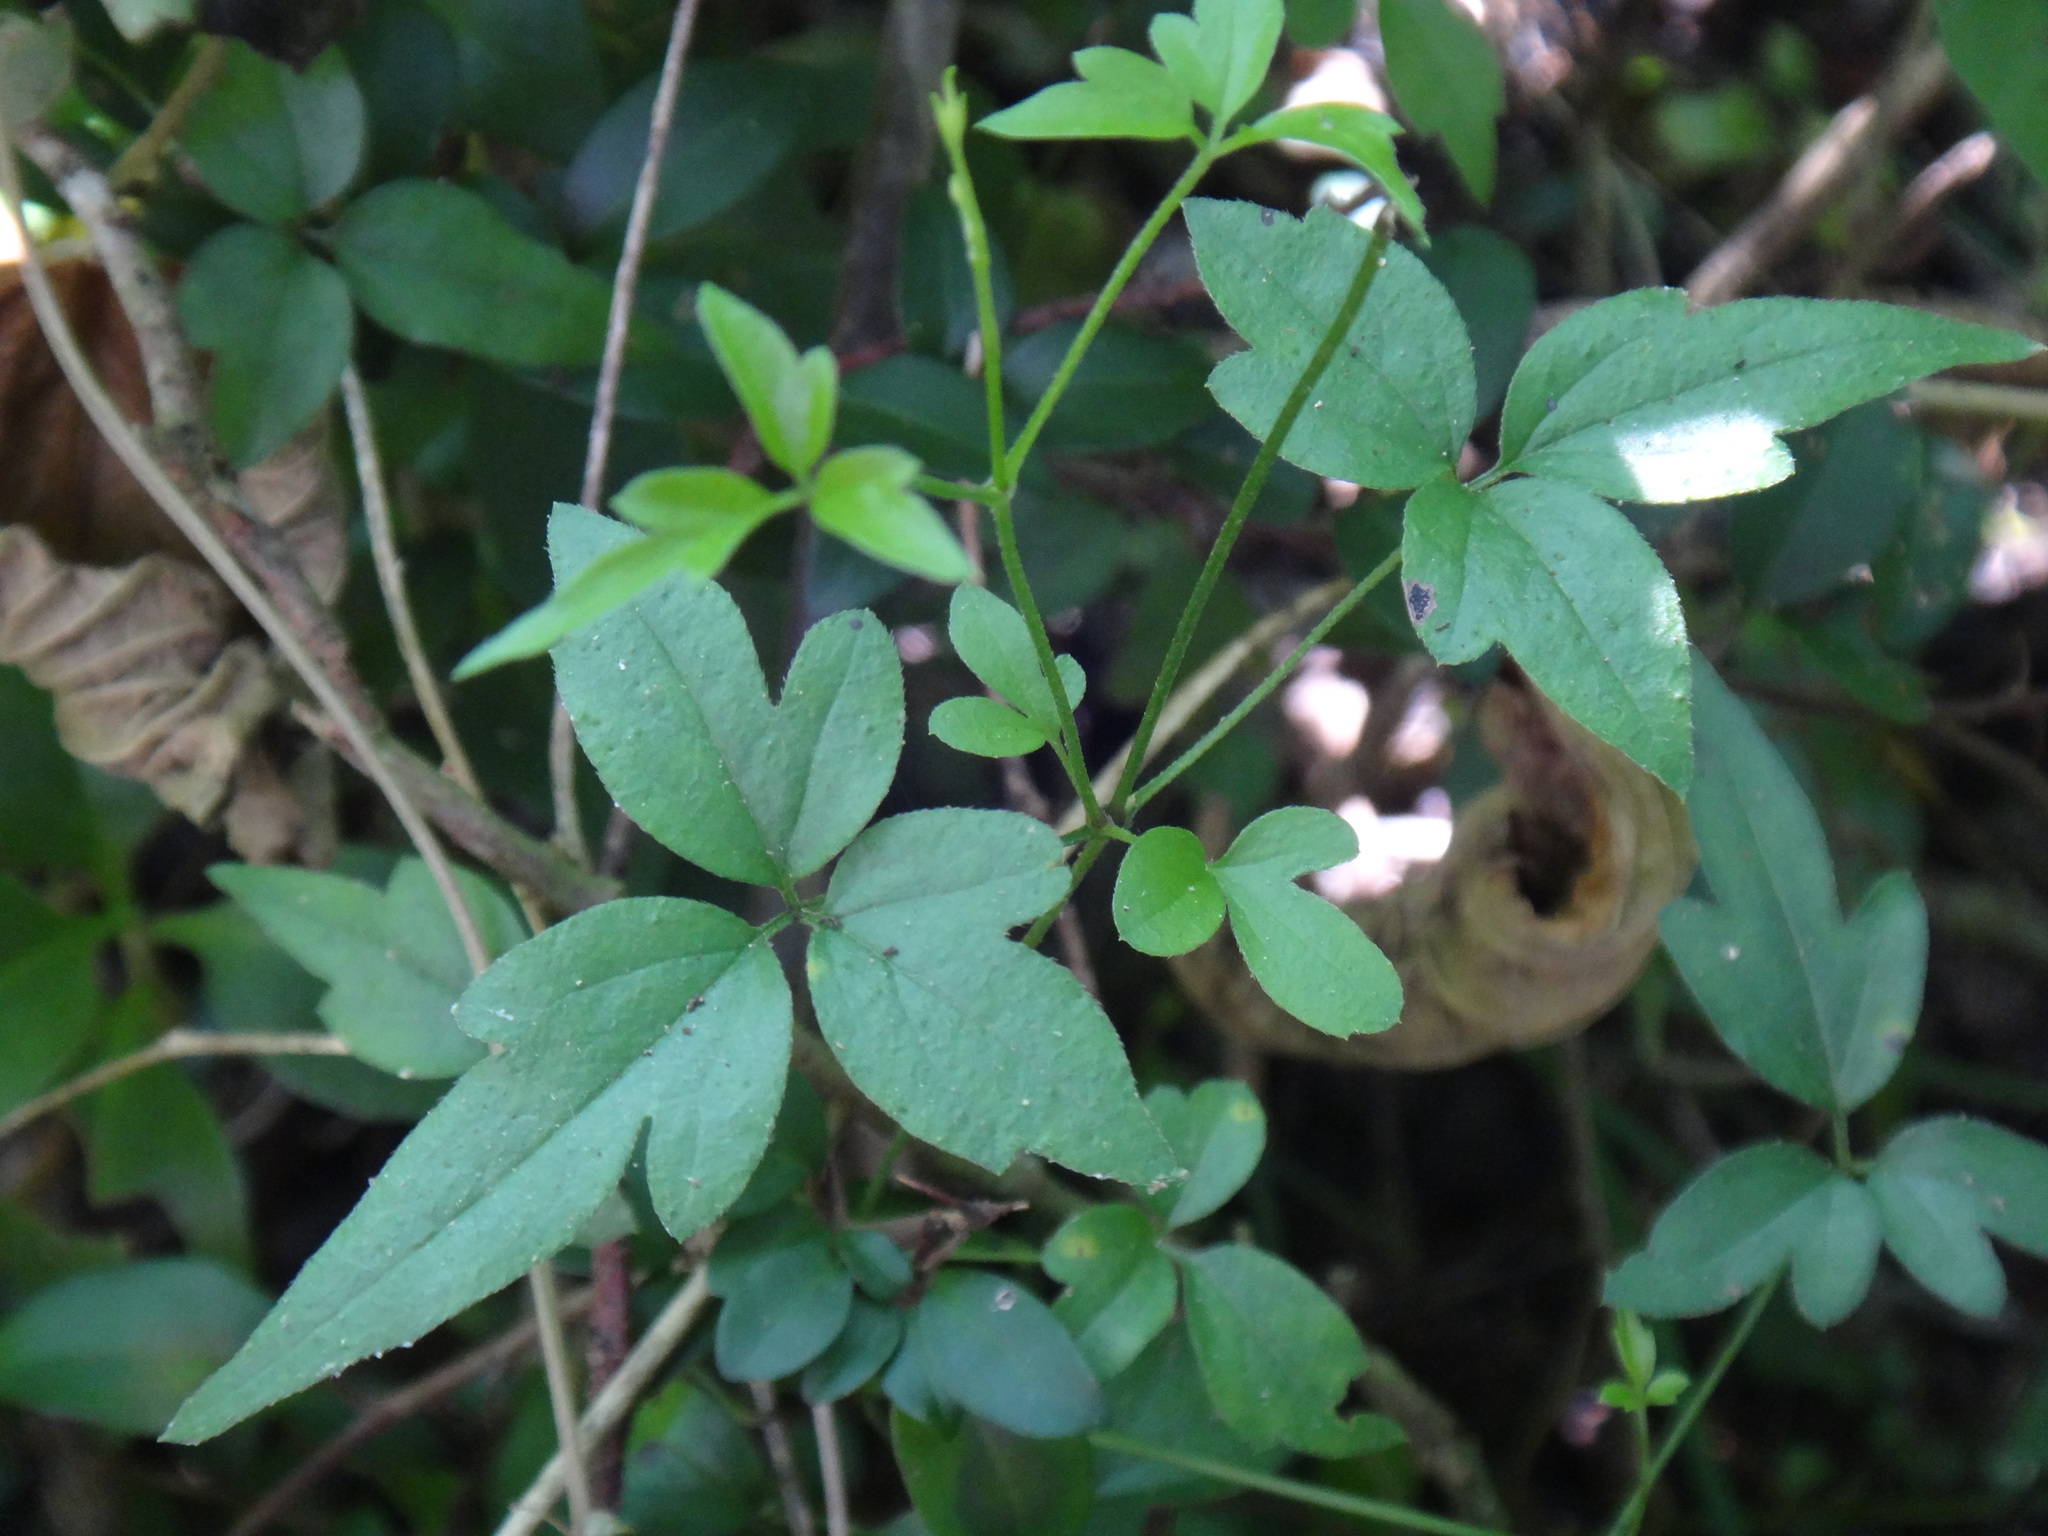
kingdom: Plantae
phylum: Tracheophyta
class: Magnoliopsida
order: Ranunculales
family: Ranunculaceae
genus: Clematis
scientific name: Clematis grata
